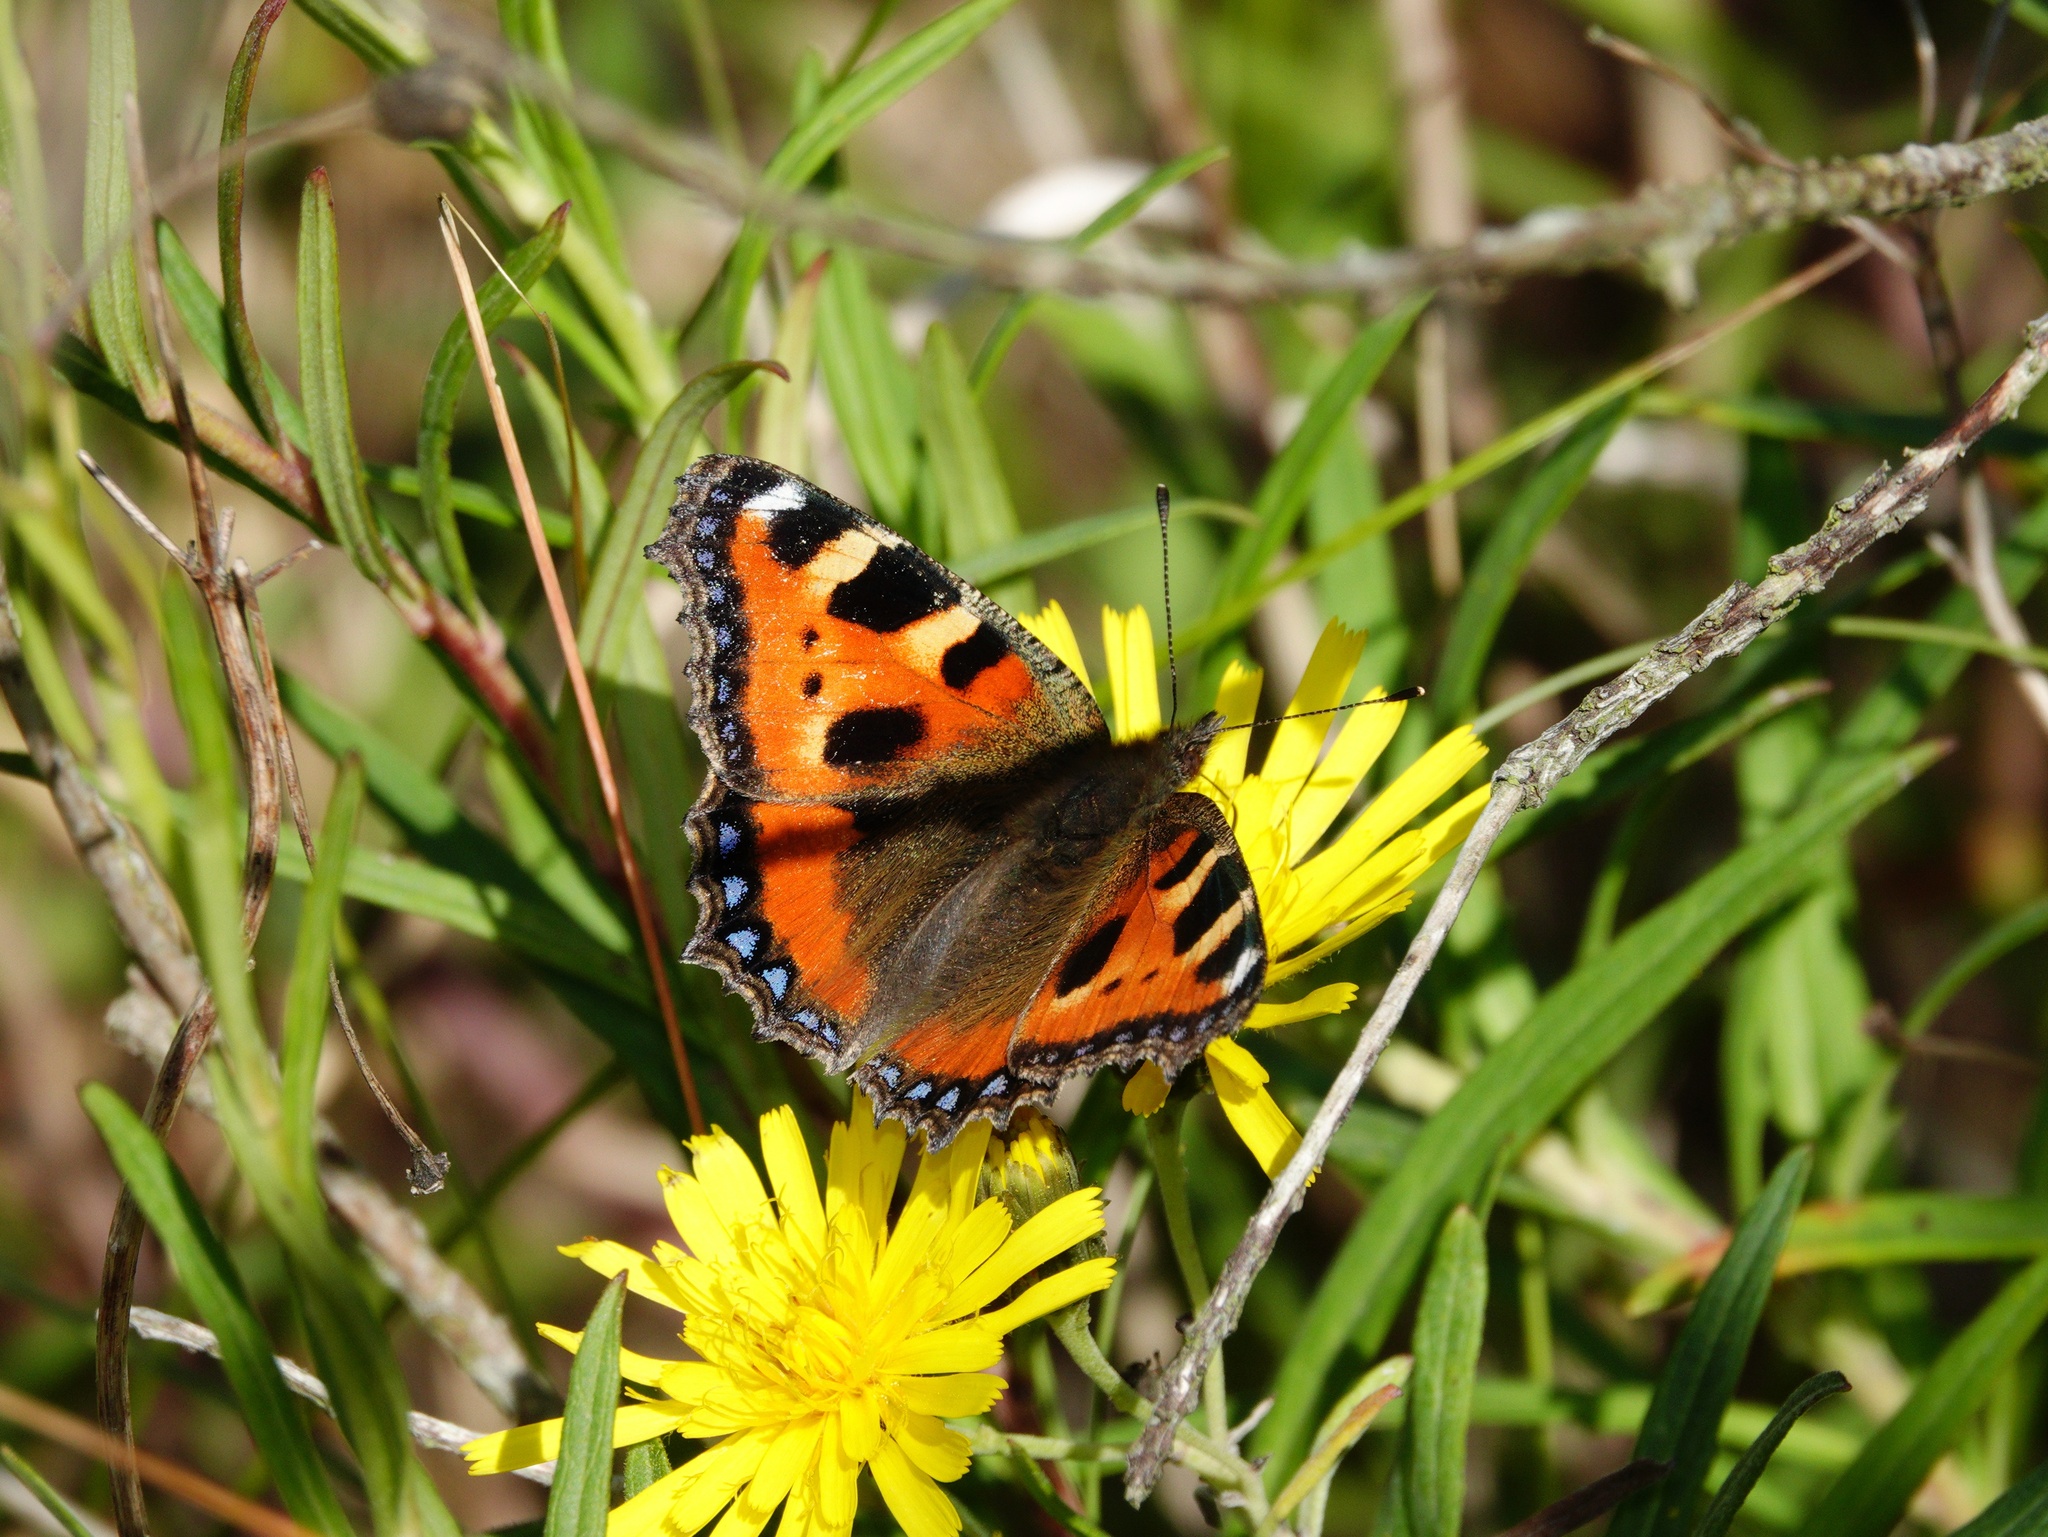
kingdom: Animalia
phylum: Arthropoda
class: Insecta
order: Lepidoptera
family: Nymphalidae
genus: Aglais
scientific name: Aglais urticae
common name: Small tortoiseshell
